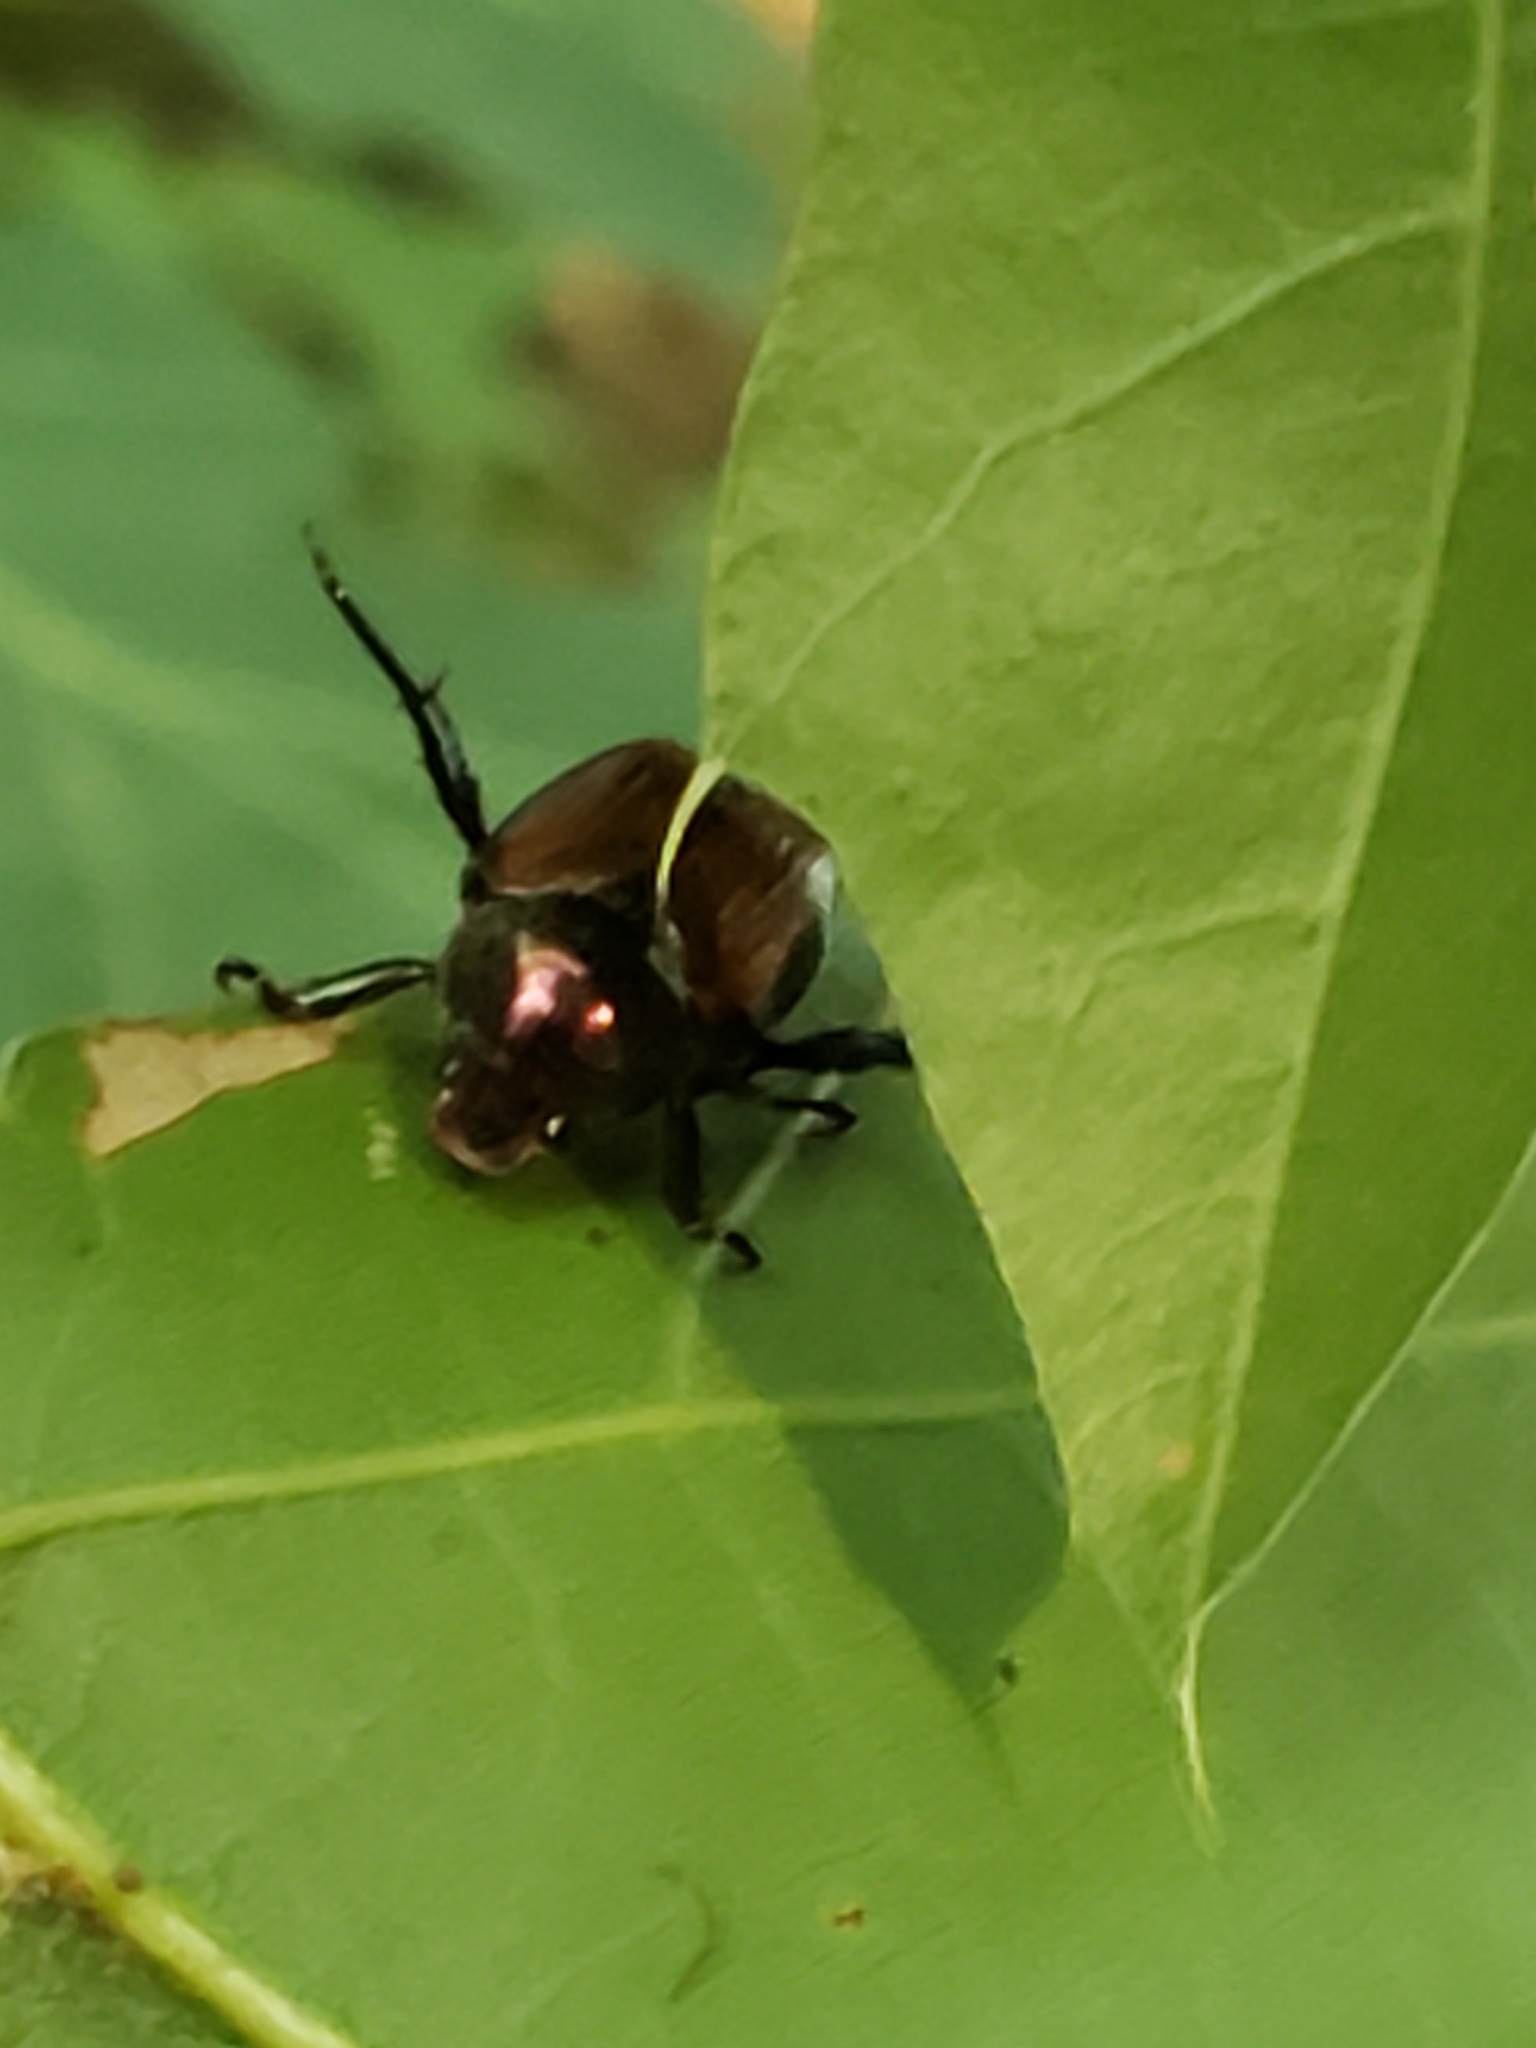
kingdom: Animalia
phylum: Arthropoda
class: Insecta
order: Coleoptera
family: Scarabaeidae
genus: Popillia
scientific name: Popillia japonica
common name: Japanese beetle
